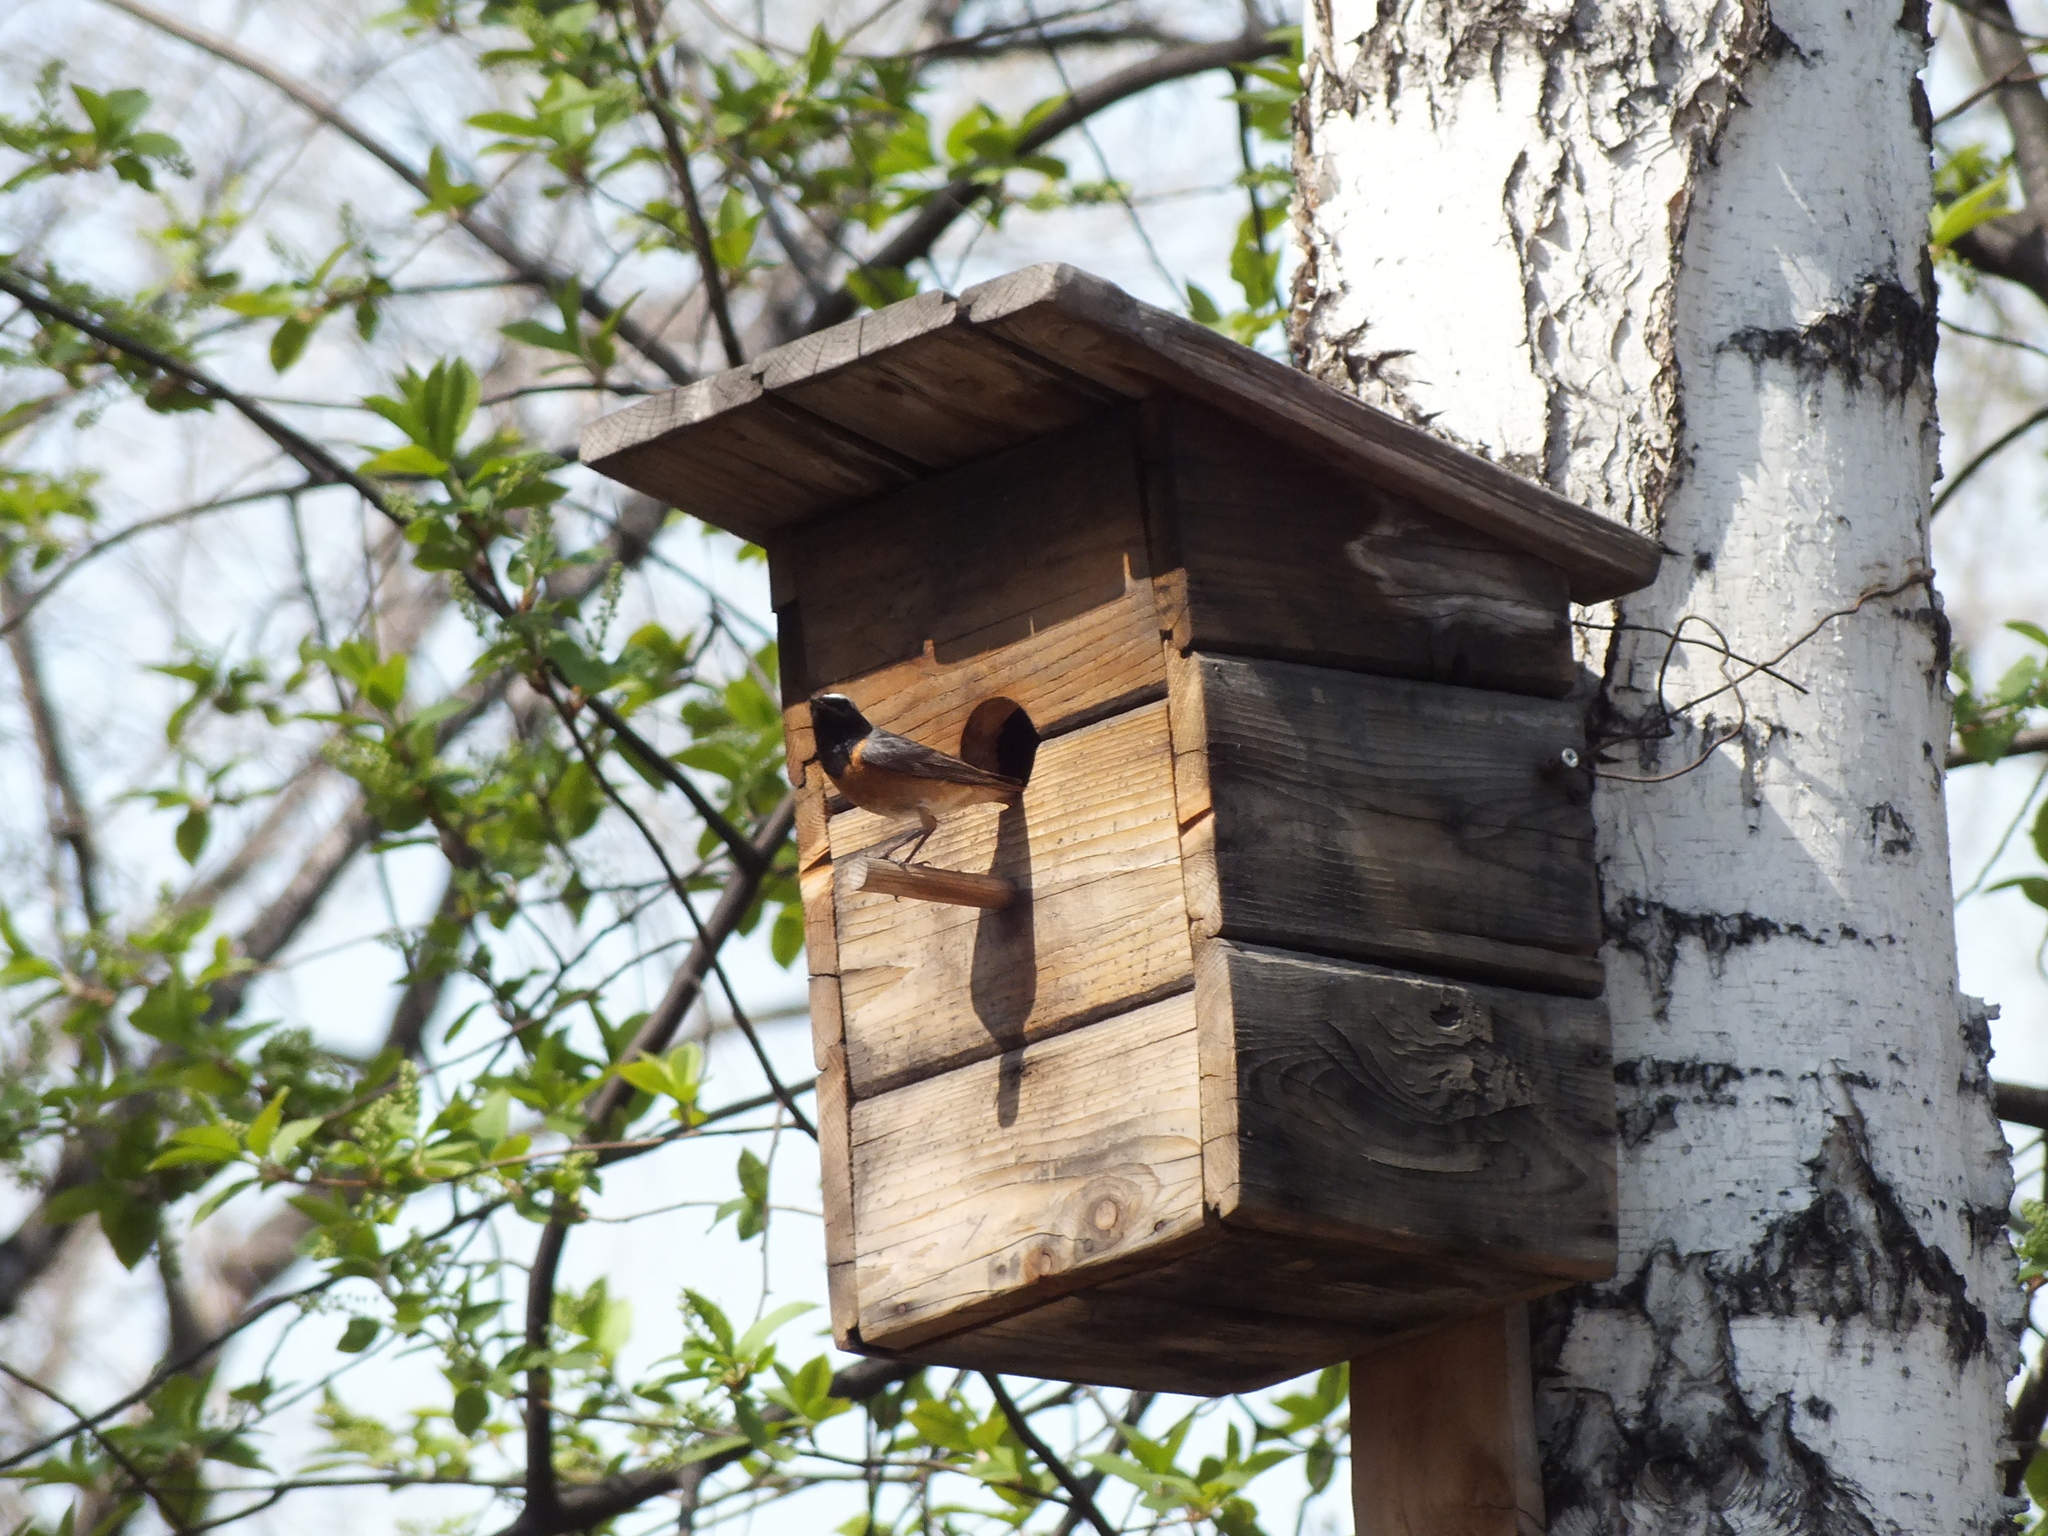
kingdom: Animalia
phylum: Chordata
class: Aves
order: Passeriformes
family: Muscicapidae
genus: Phoenicurus
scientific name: Phoenicurus phoenicurus
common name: Common redstart
